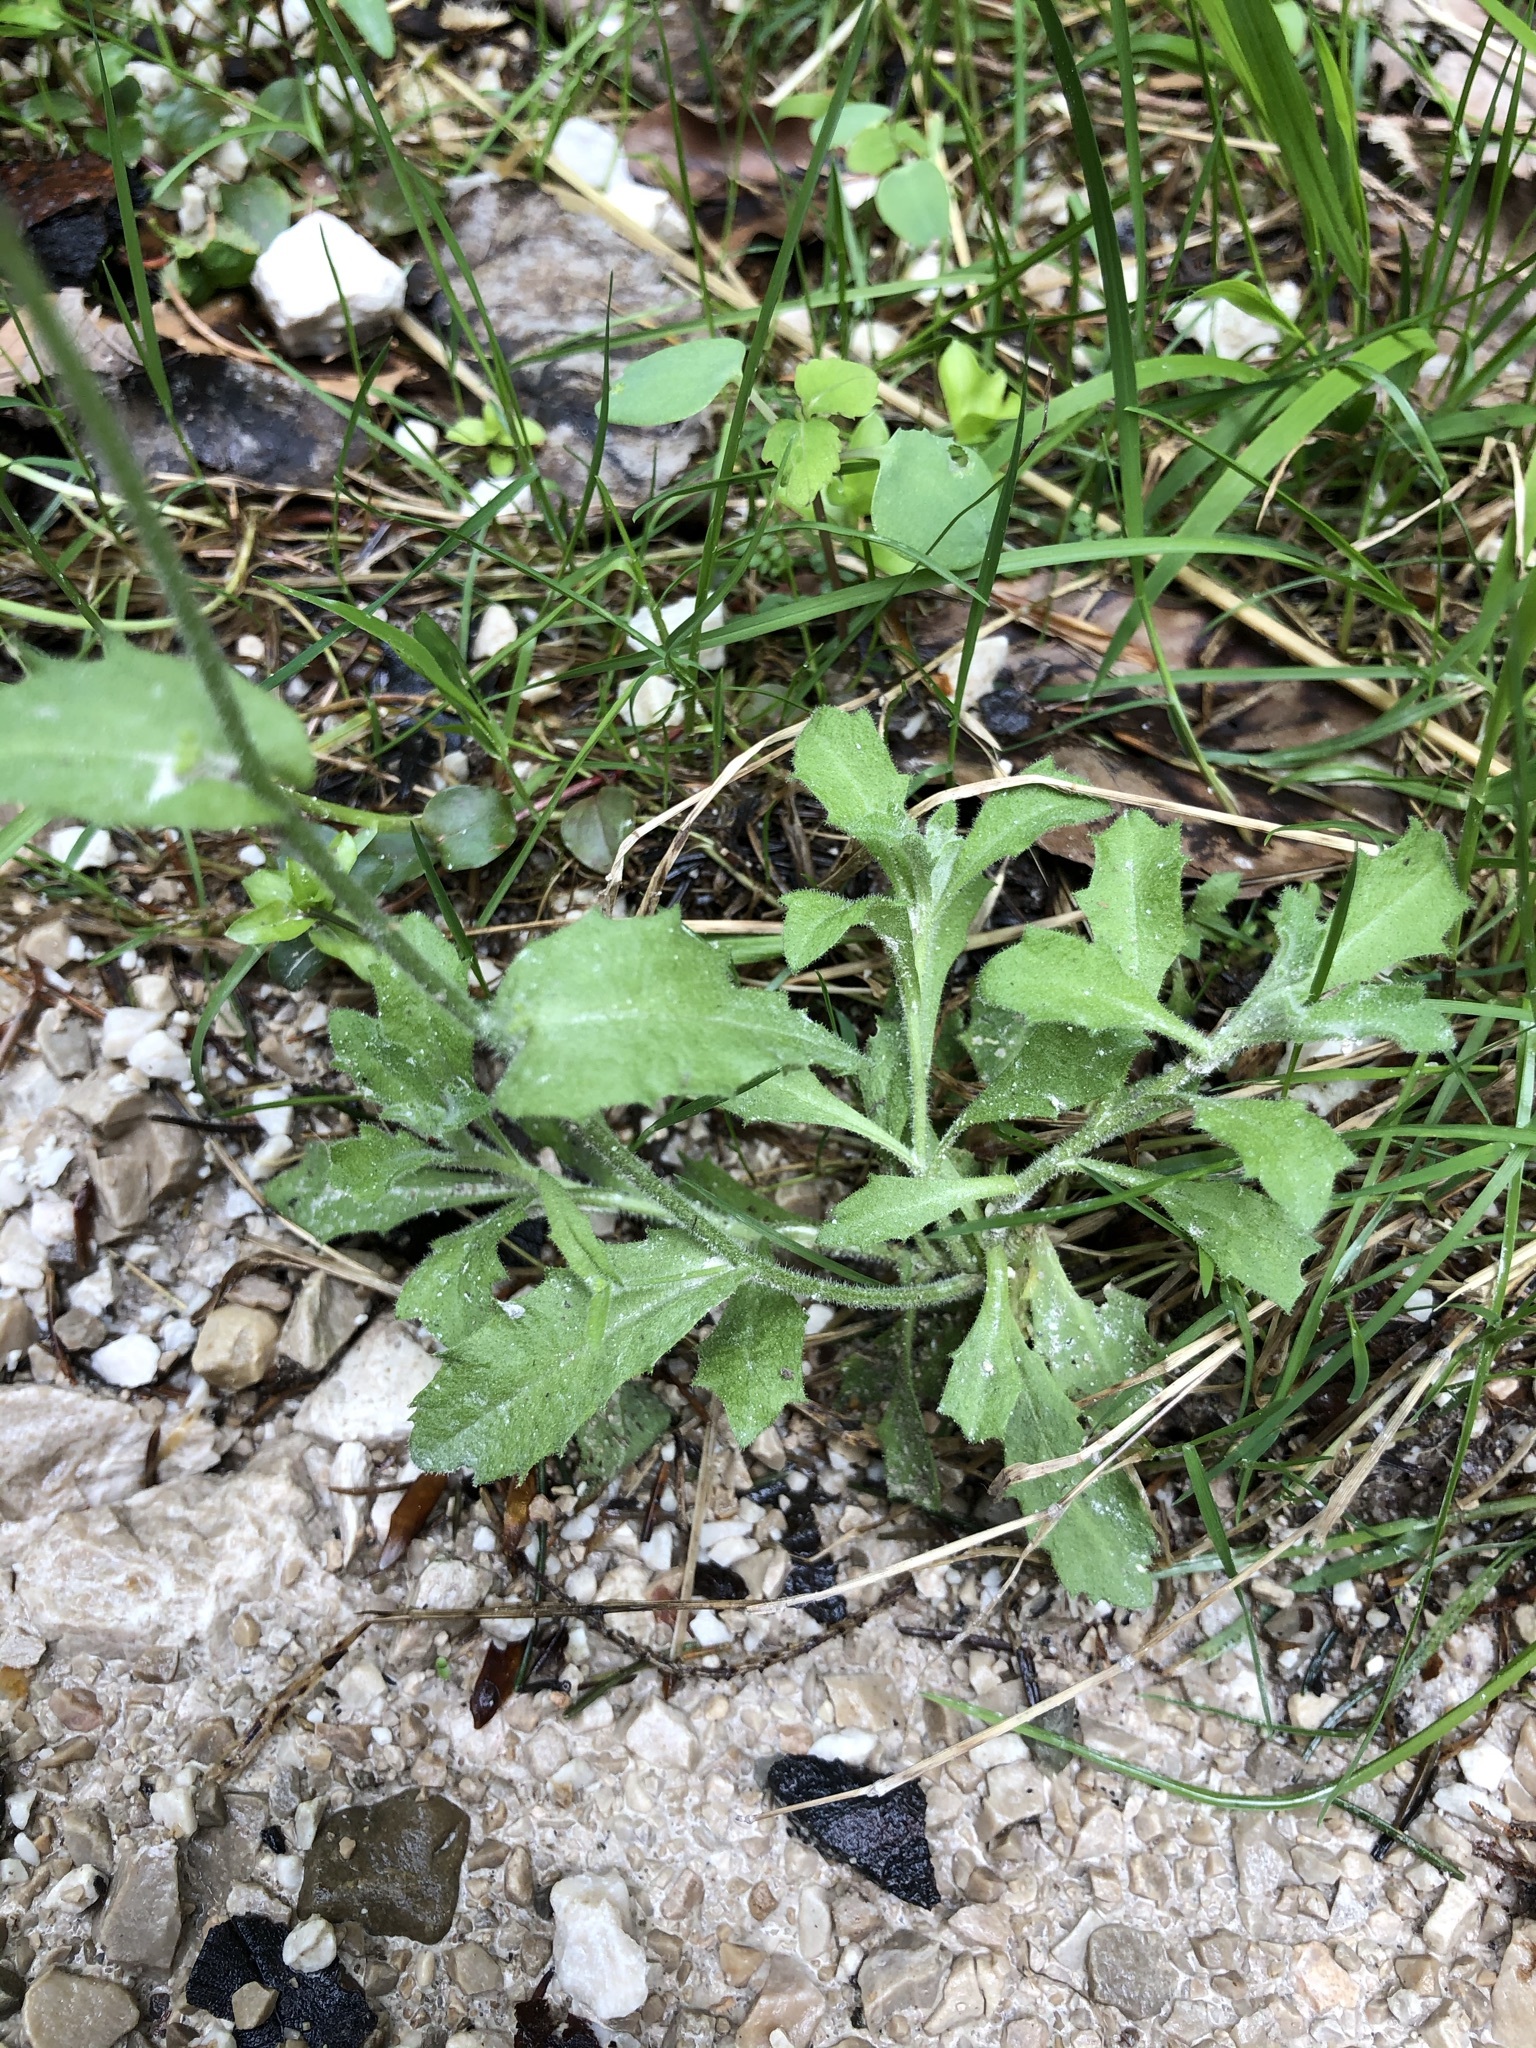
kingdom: Plantae
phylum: Tracheophyta
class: Magnoliopsida
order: Brassicales
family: Brassicaceae
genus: Arabis
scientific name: Arabis alpina
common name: Alpine rock-cress
